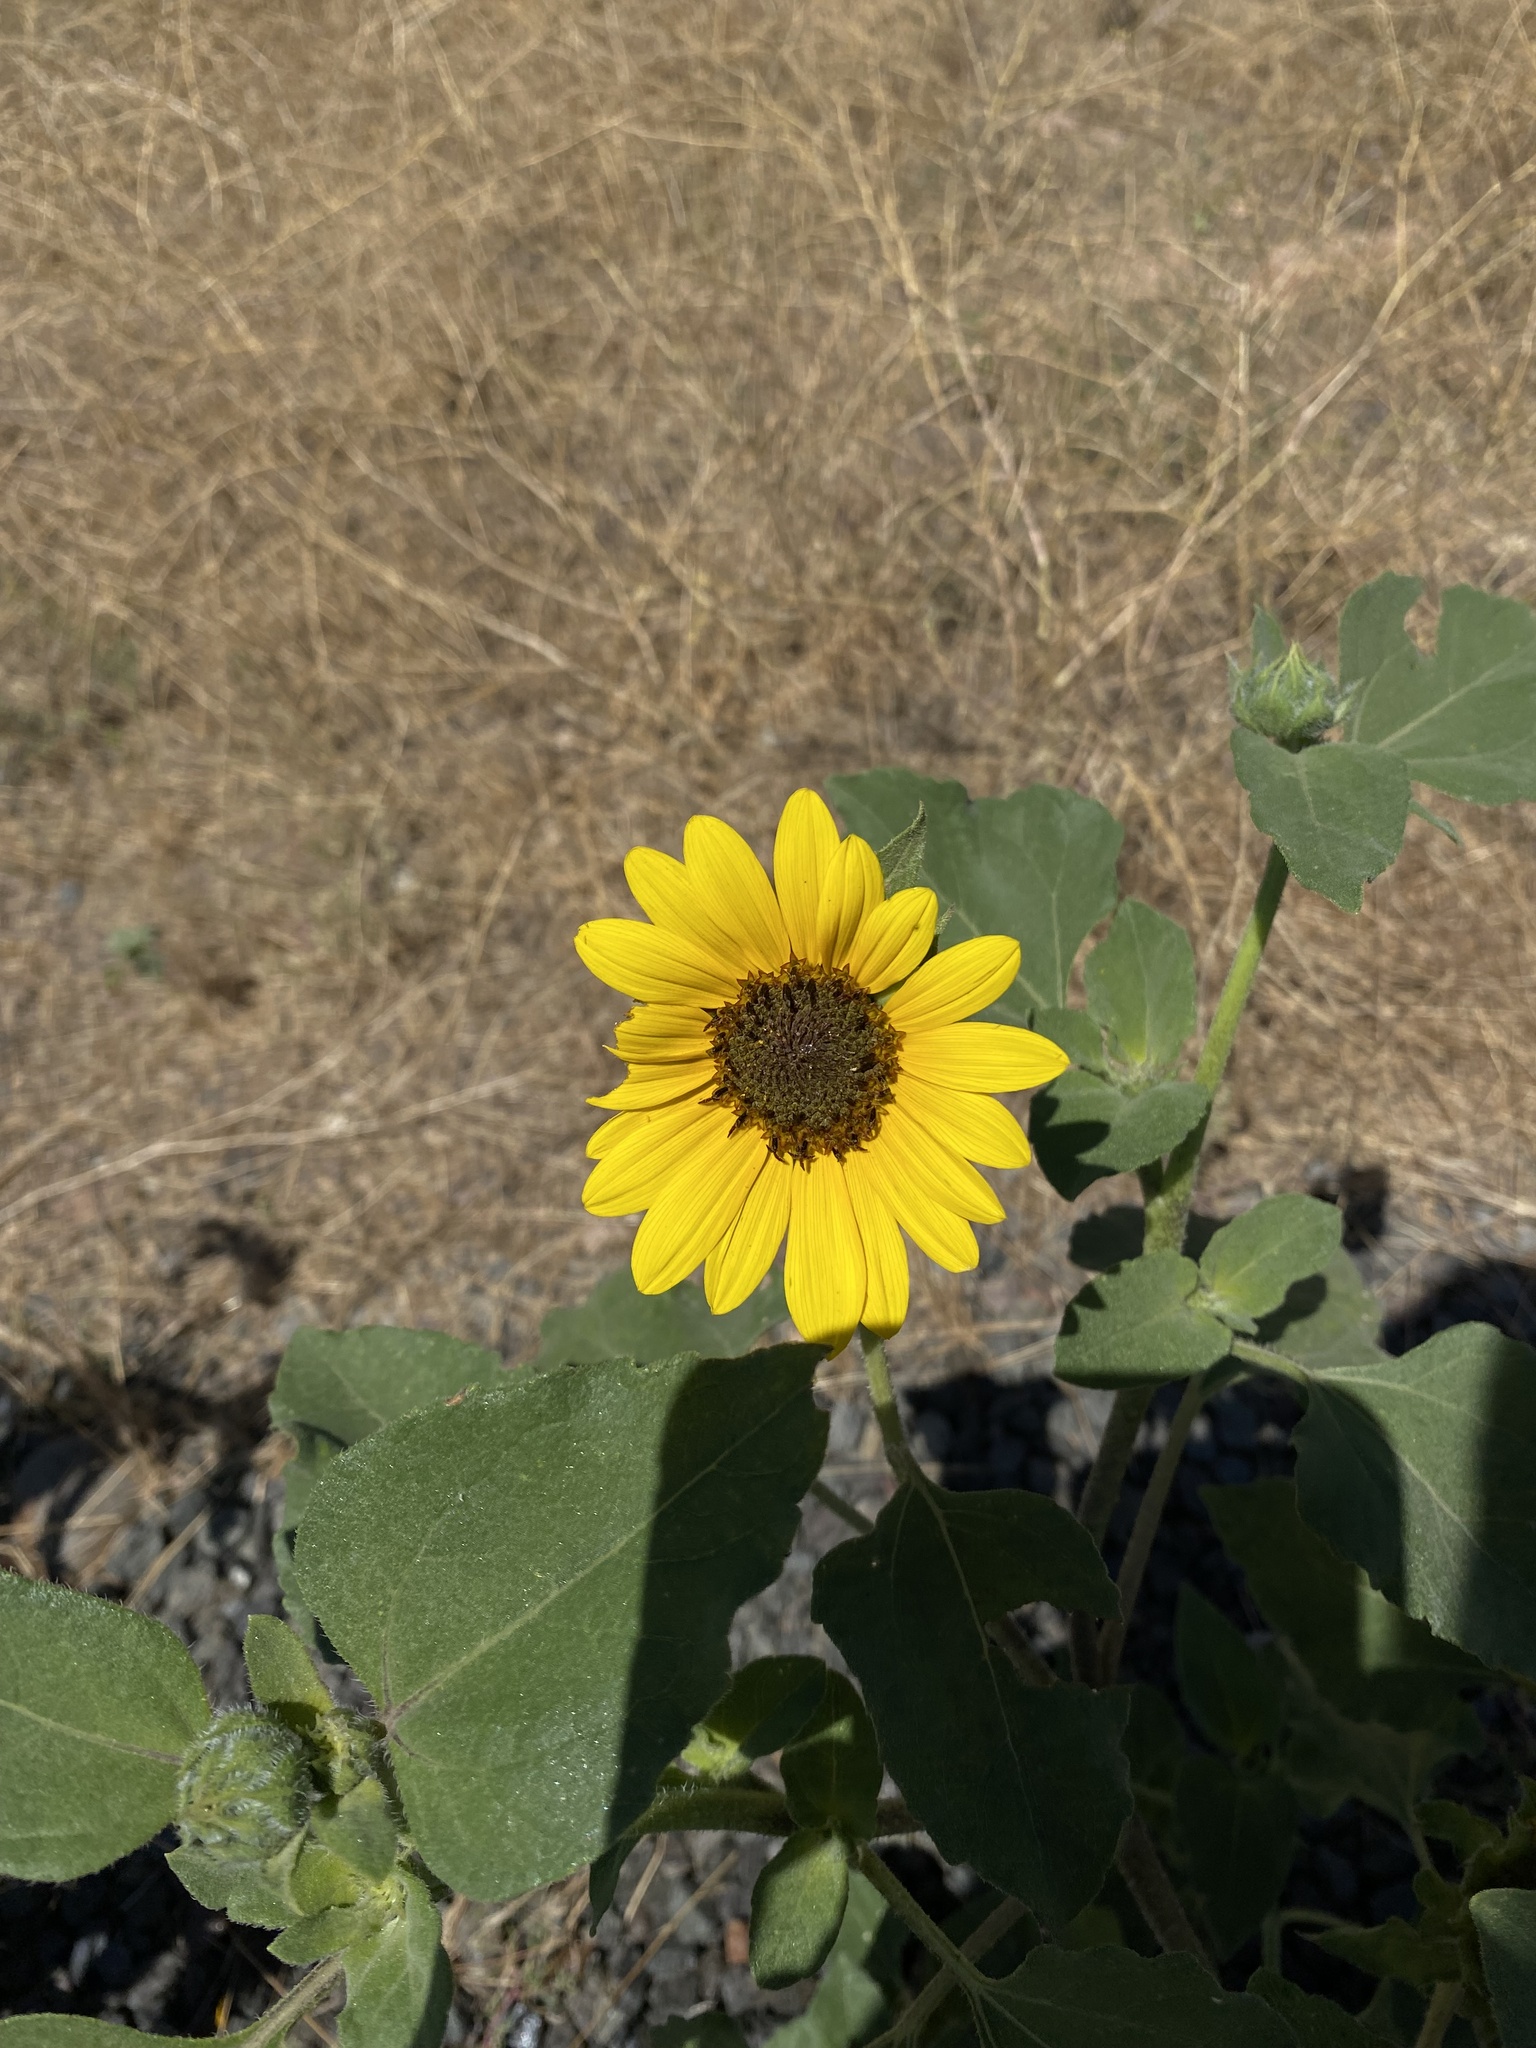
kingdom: Plantae
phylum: Tracheophyta
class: Magnoliopsida
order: Asterales
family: Asteraceae
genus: Helianthus
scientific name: Helianthus annuus
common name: Sunflower
